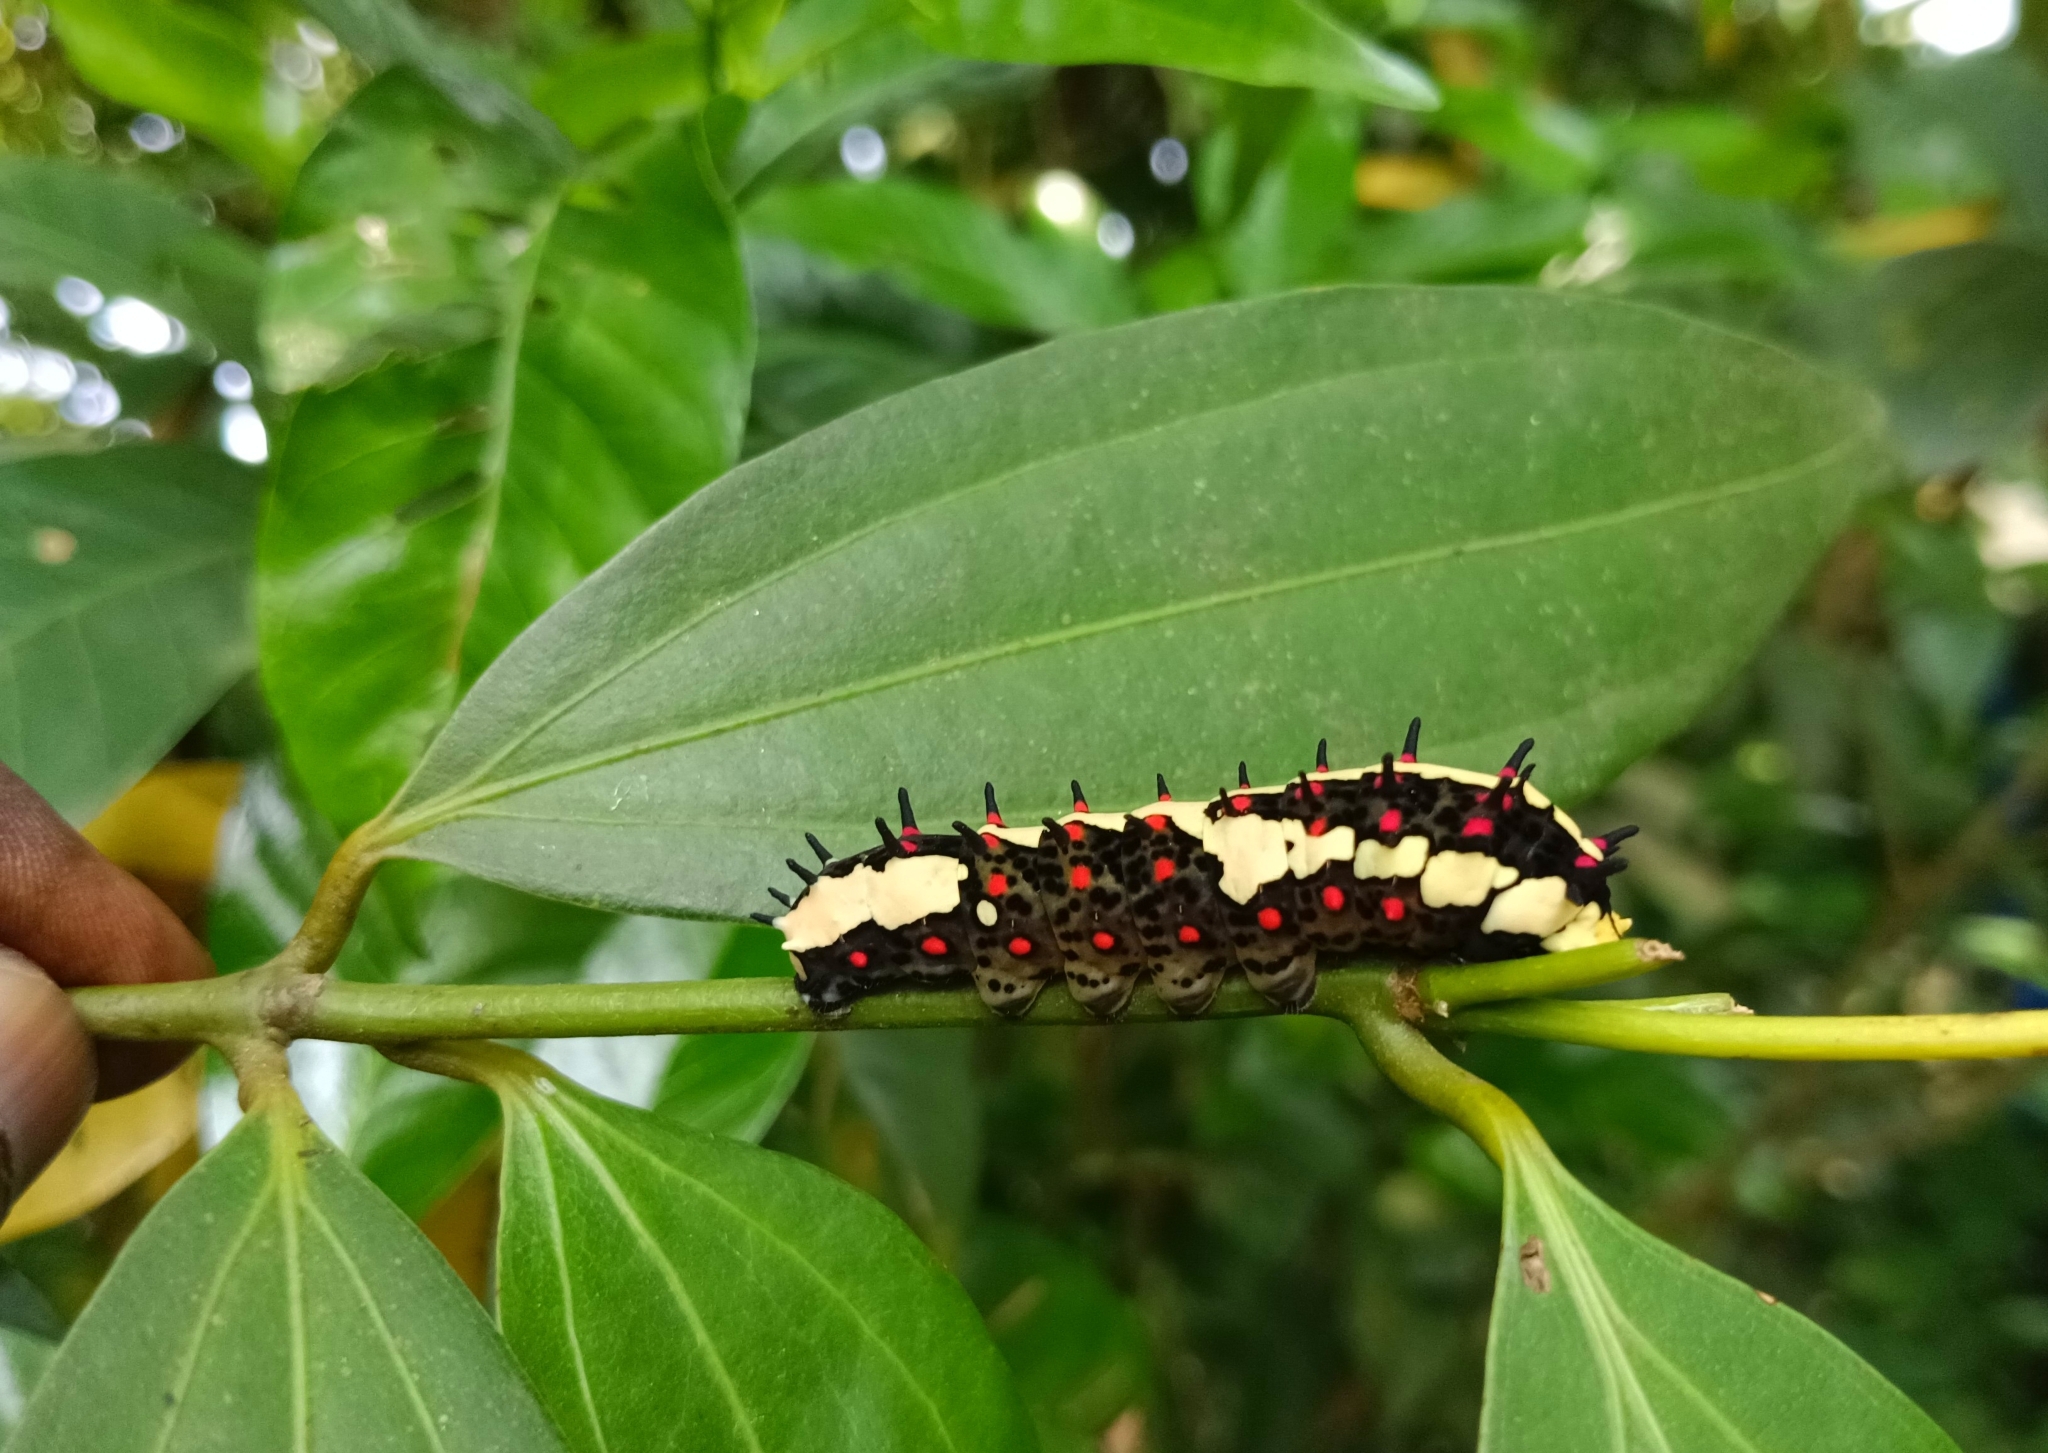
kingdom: Animalia
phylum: Arthropoda
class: Insecta
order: Lepidoptera
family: Papilionidae
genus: Chilasa
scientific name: Chilasa clytia
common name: Common mime
